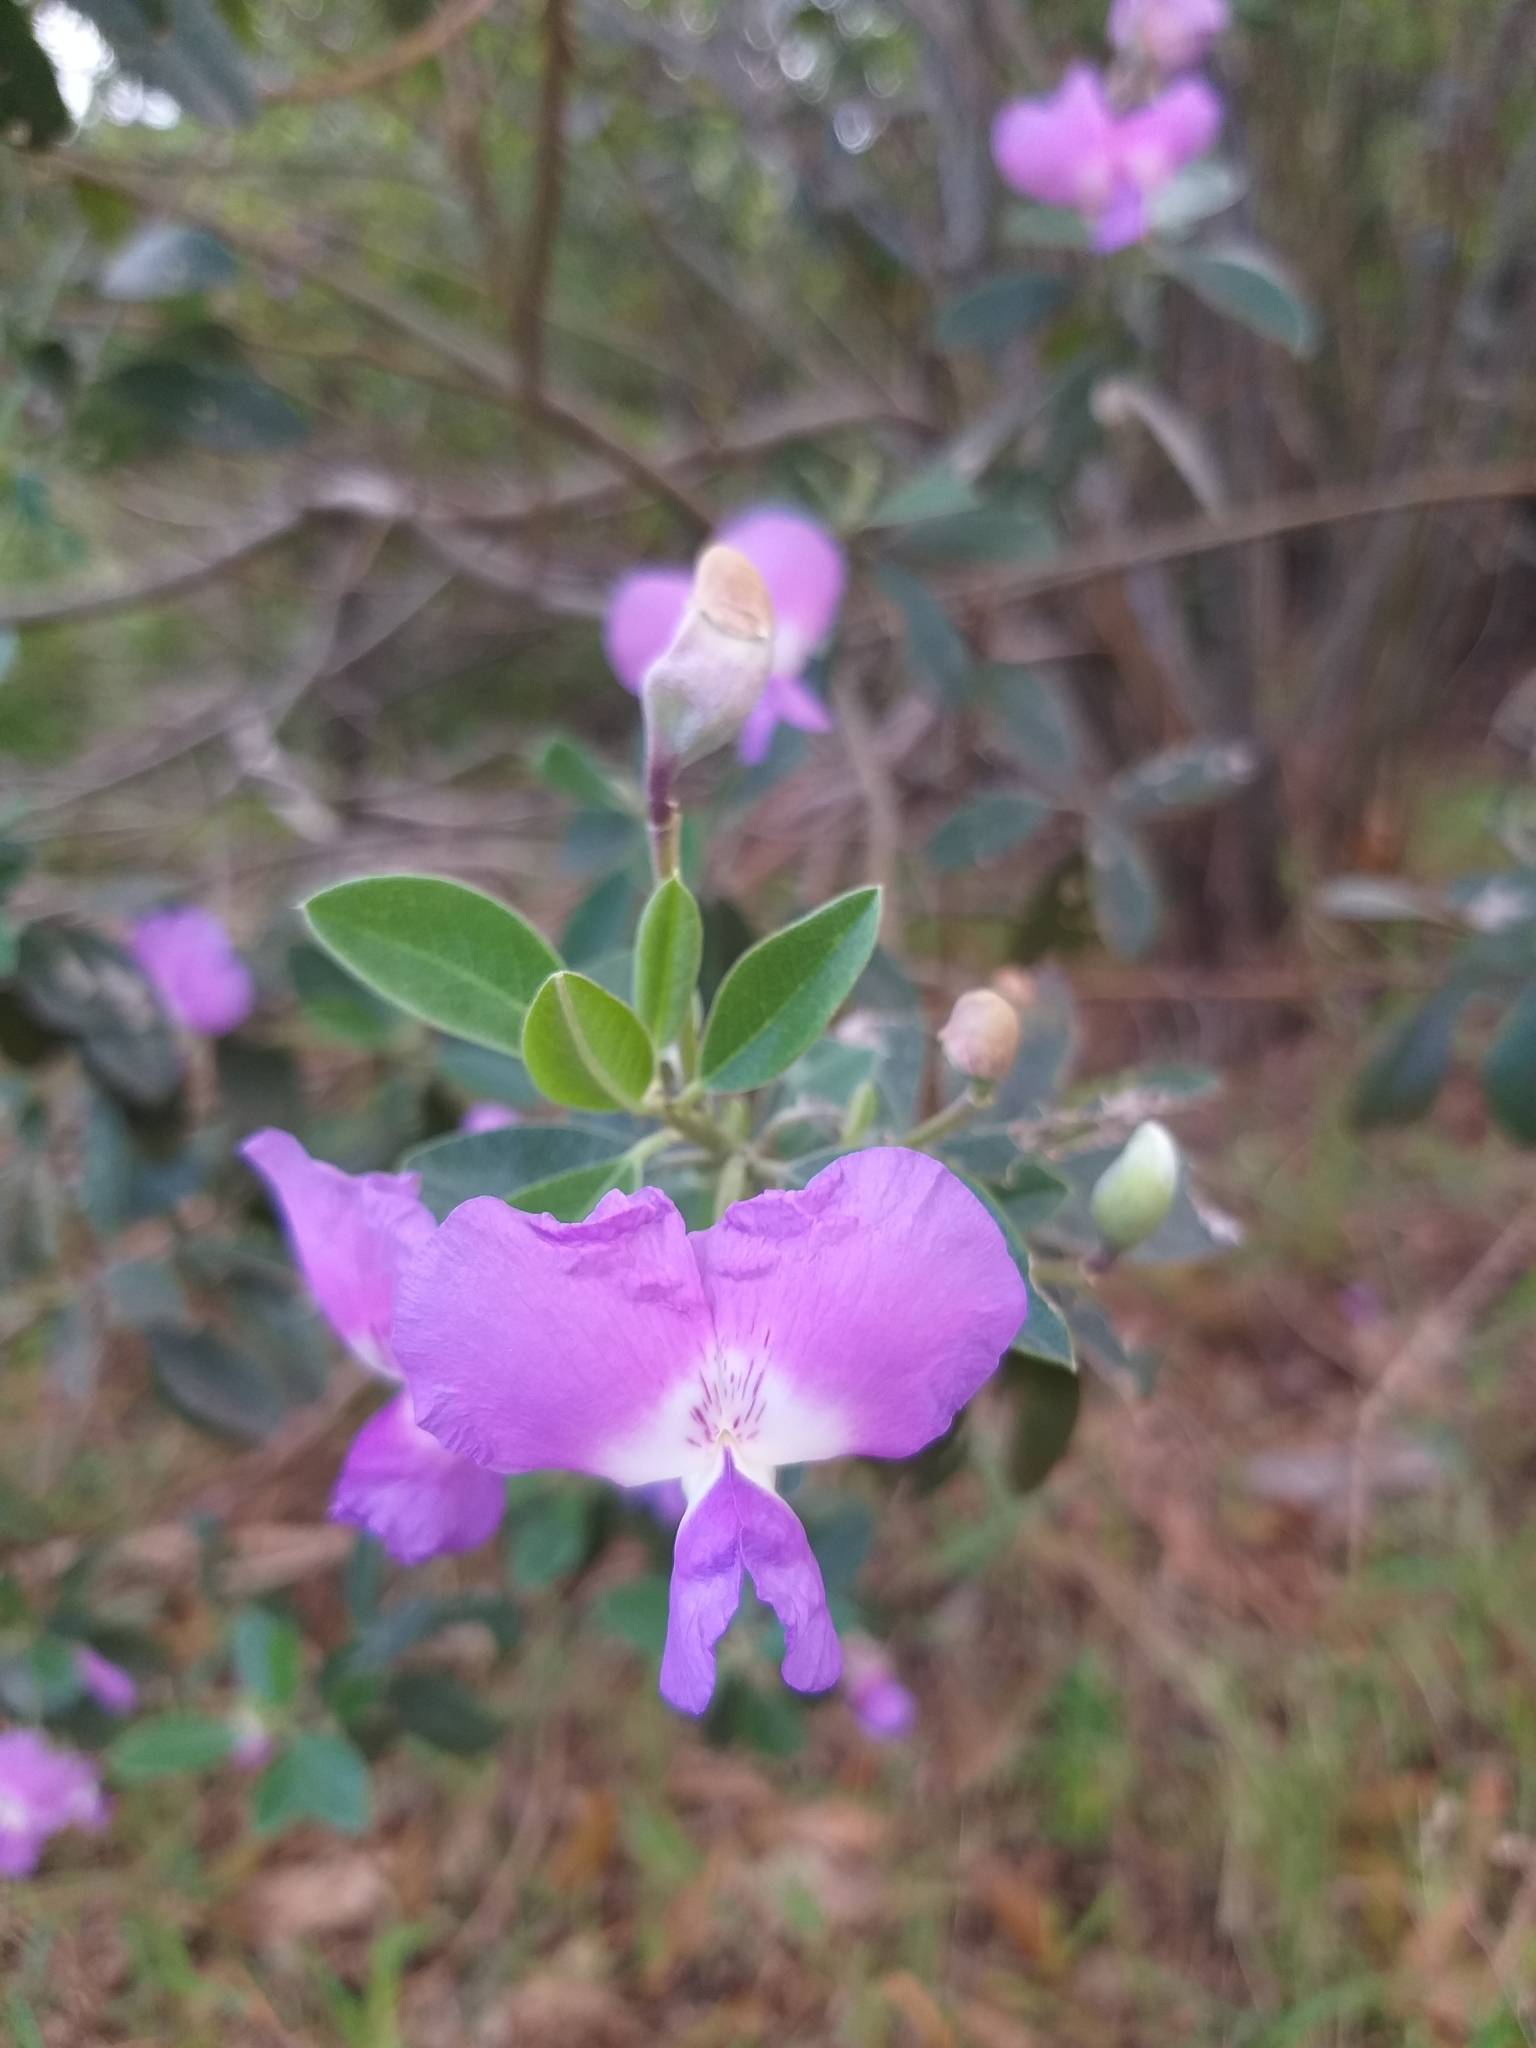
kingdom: Plantae
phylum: Tracheophyta
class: Magnoliopsida
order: Fabales
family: Fabaceae
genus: Podalyria
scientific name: Podalyria calyptrata
